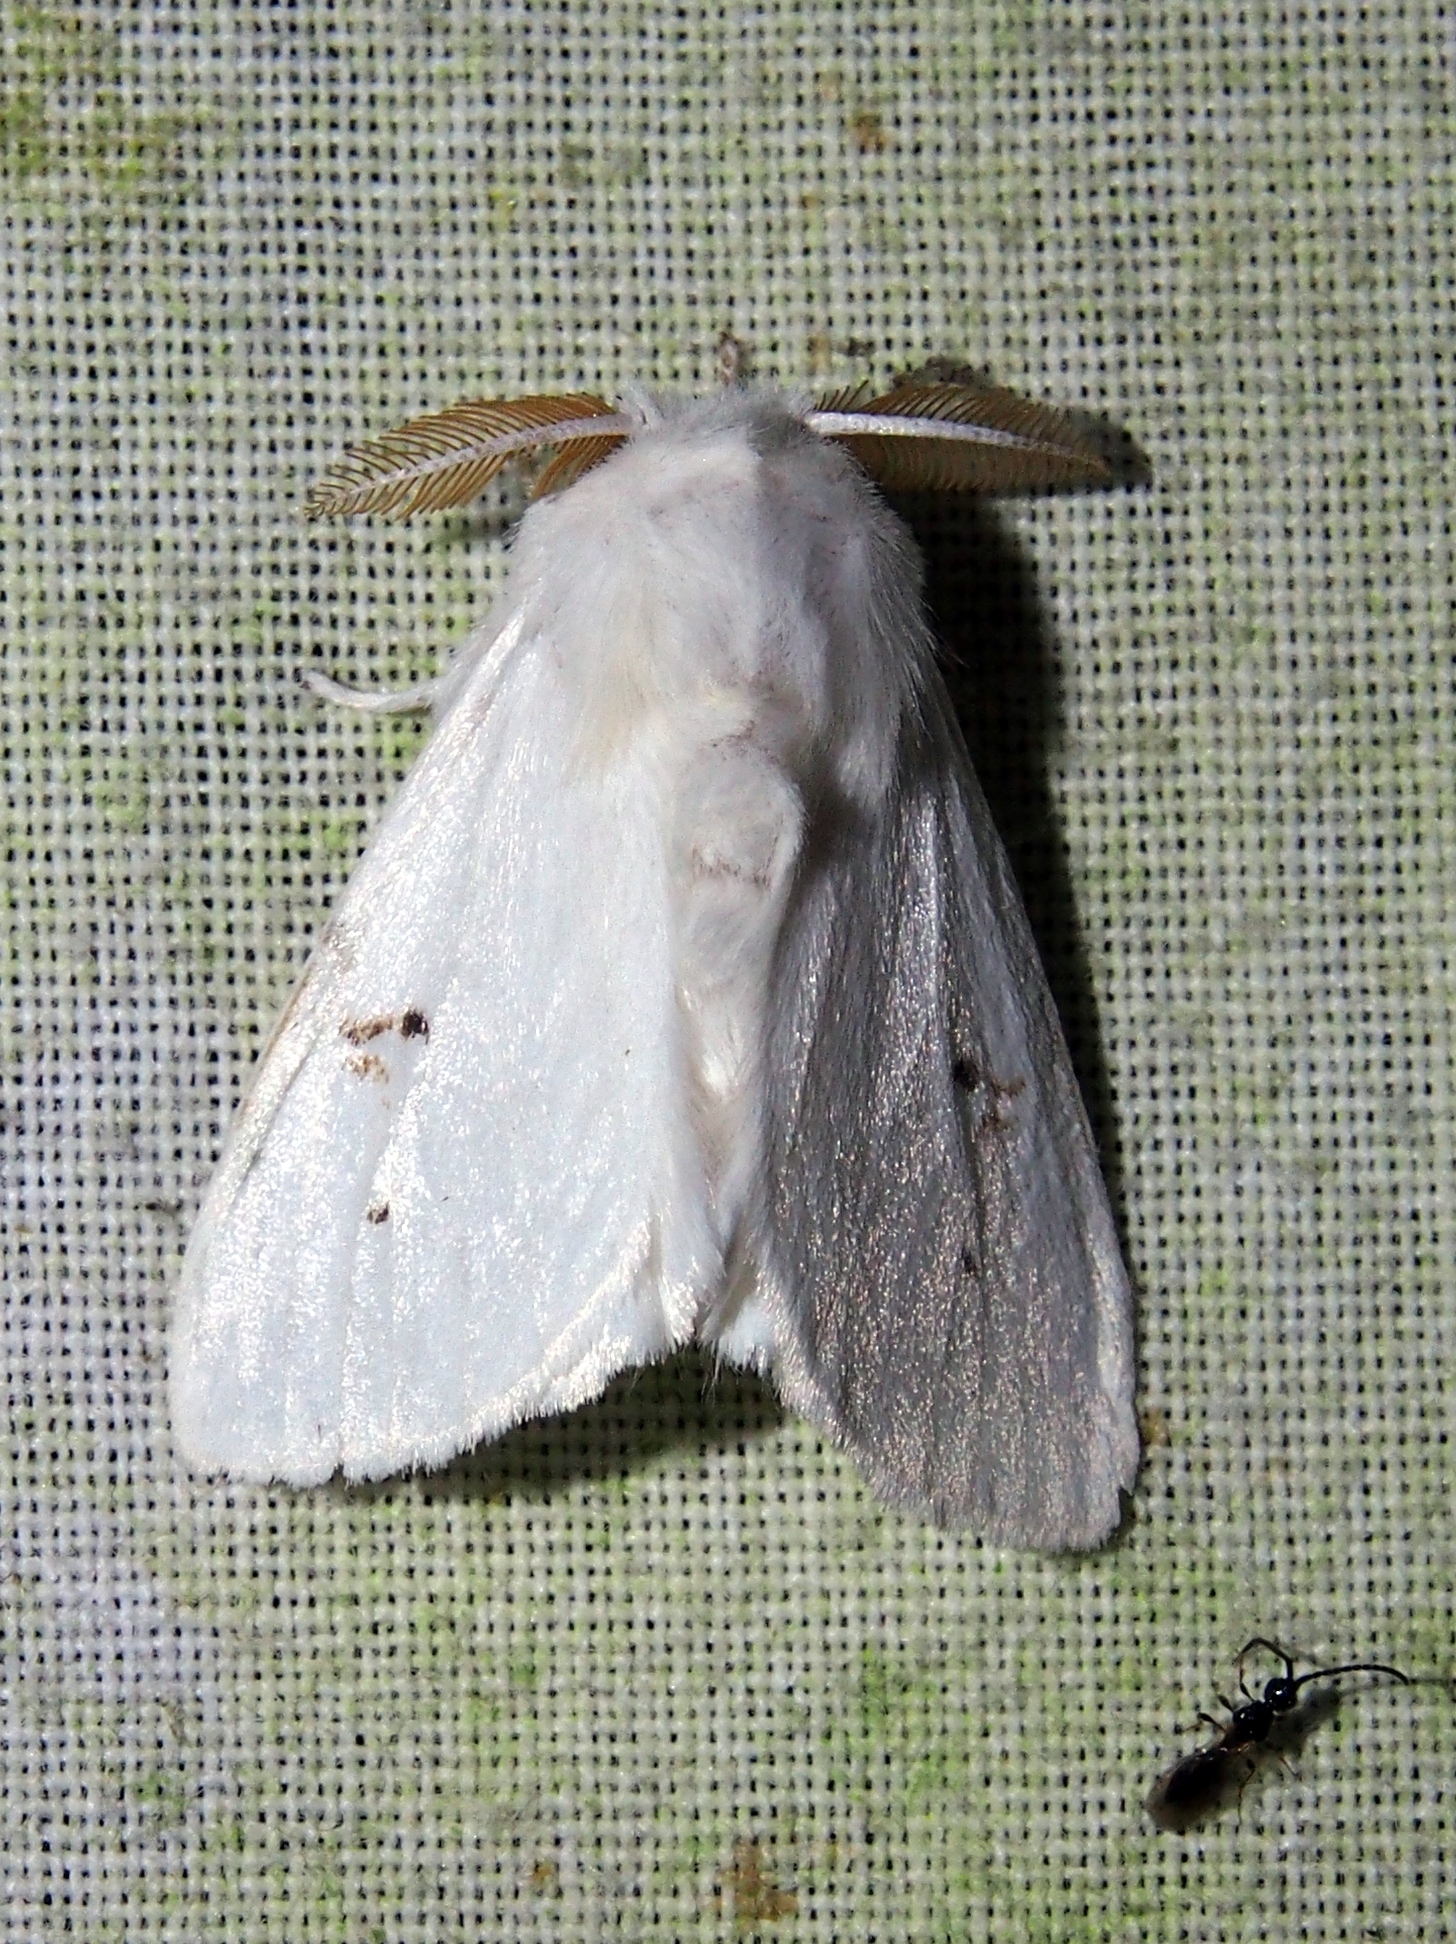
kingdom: Animalia
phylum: Arthropoda
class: Insecta
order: Lepidoptera
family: Erebidae
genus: Thagona
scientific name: Thagona tibialis
